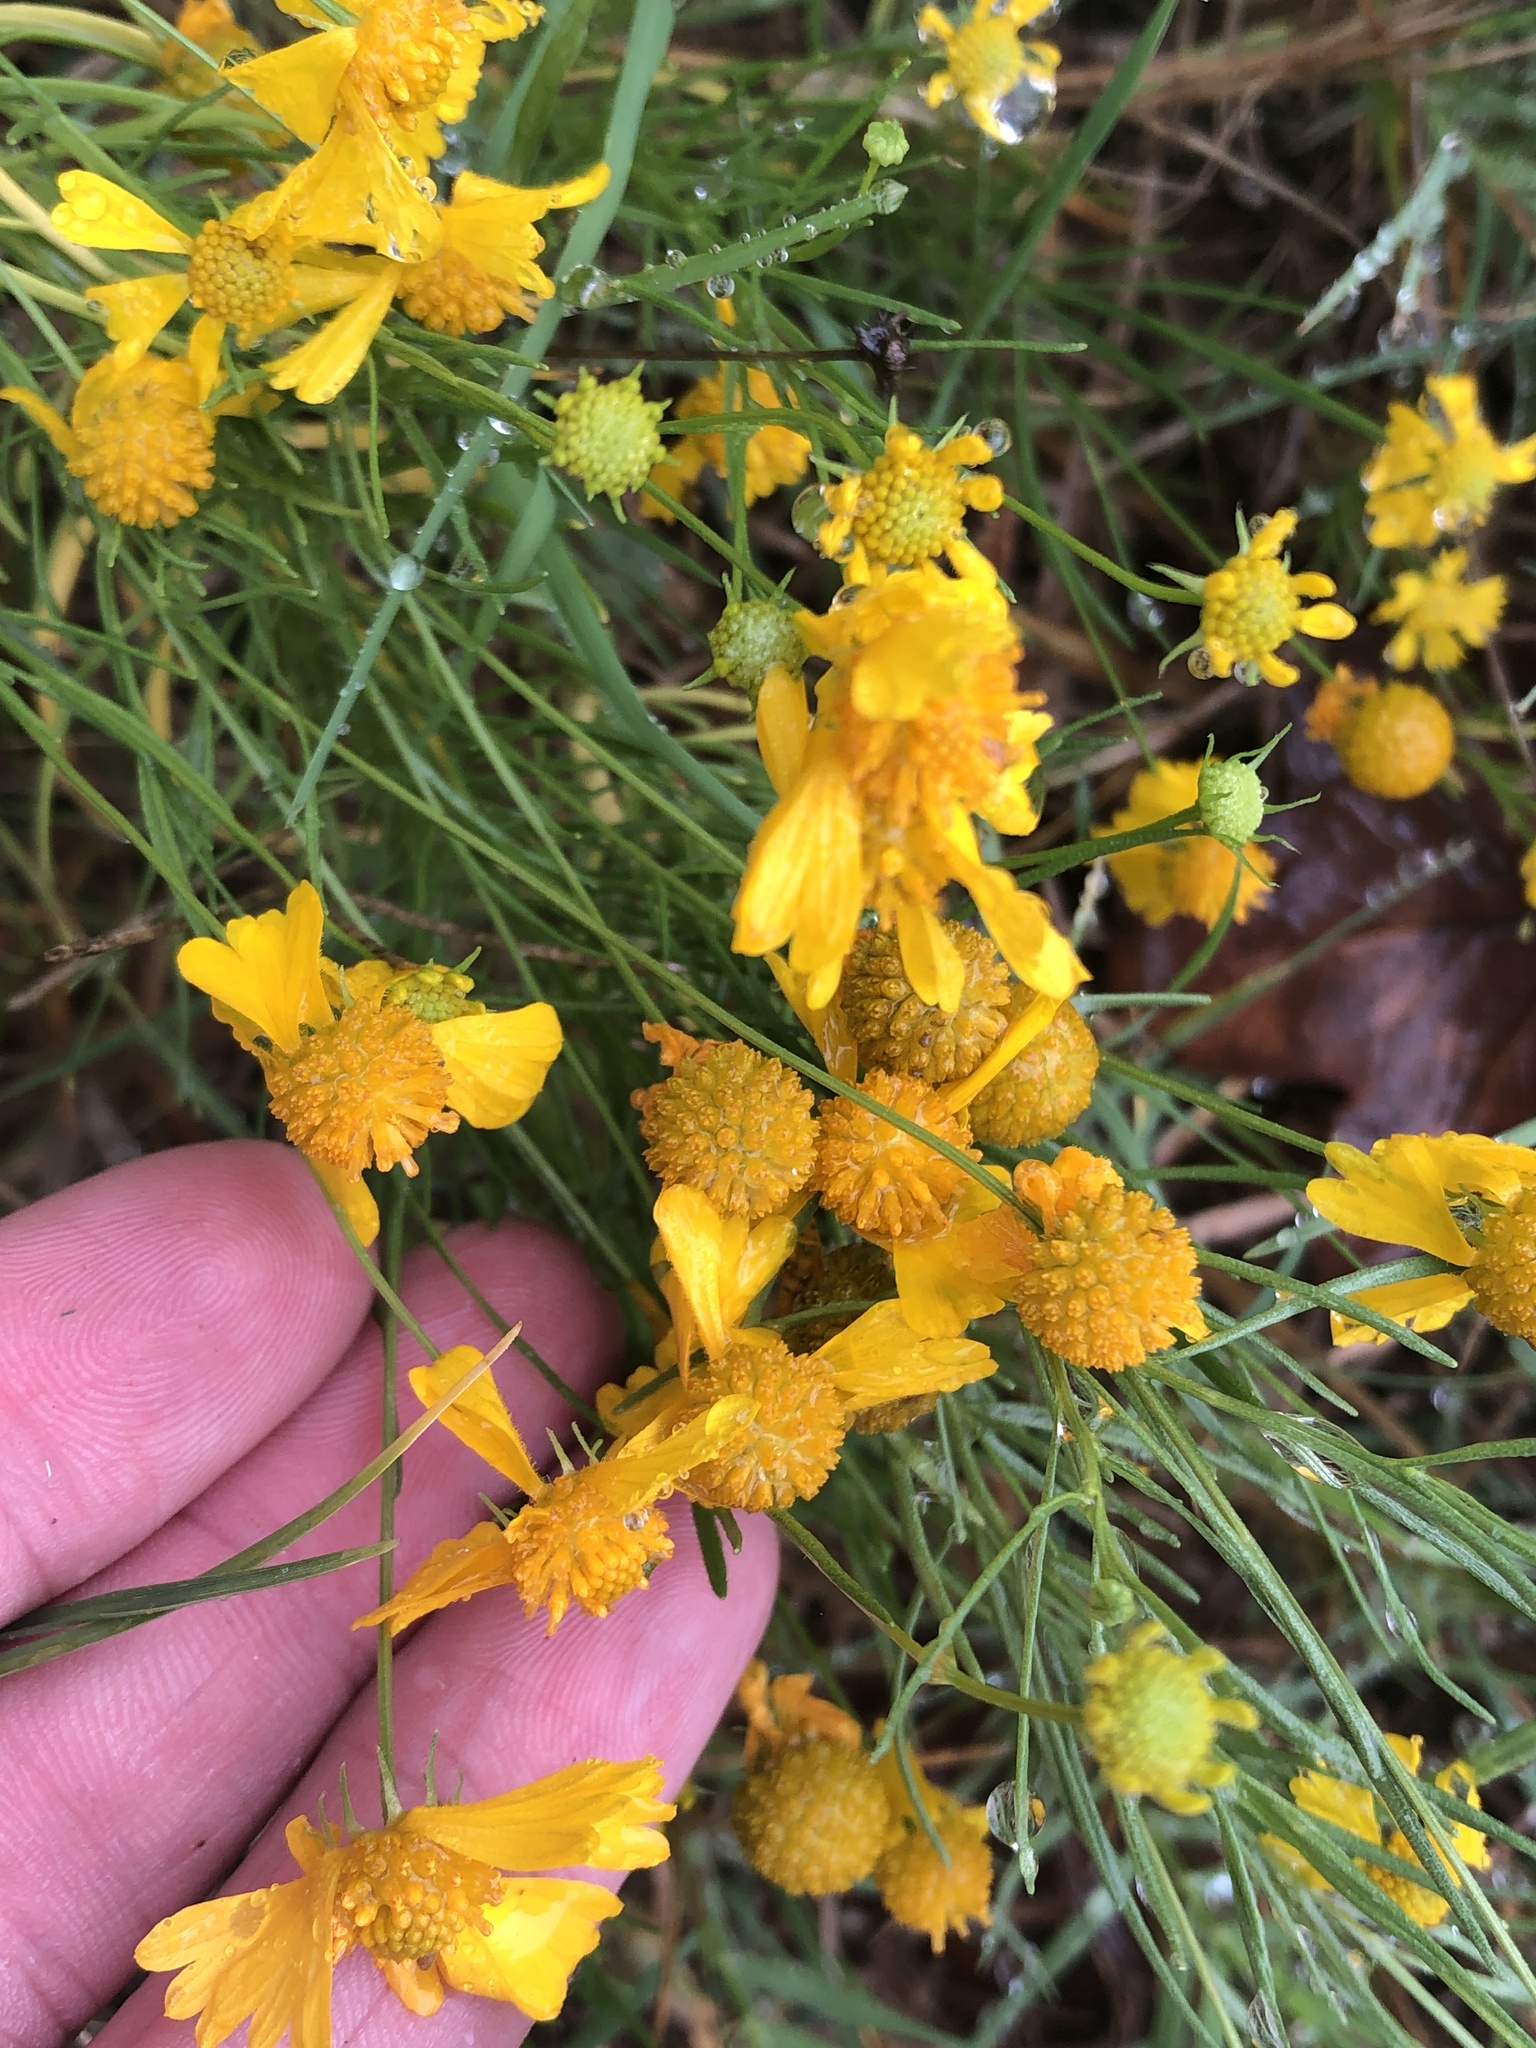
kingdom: Plantae
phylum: Tracheophyta
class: Magnoliopsida
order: Asterales
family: Asteraceae
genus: Helenium
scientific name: Helenium amarum
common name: Bitter sneezeweed
